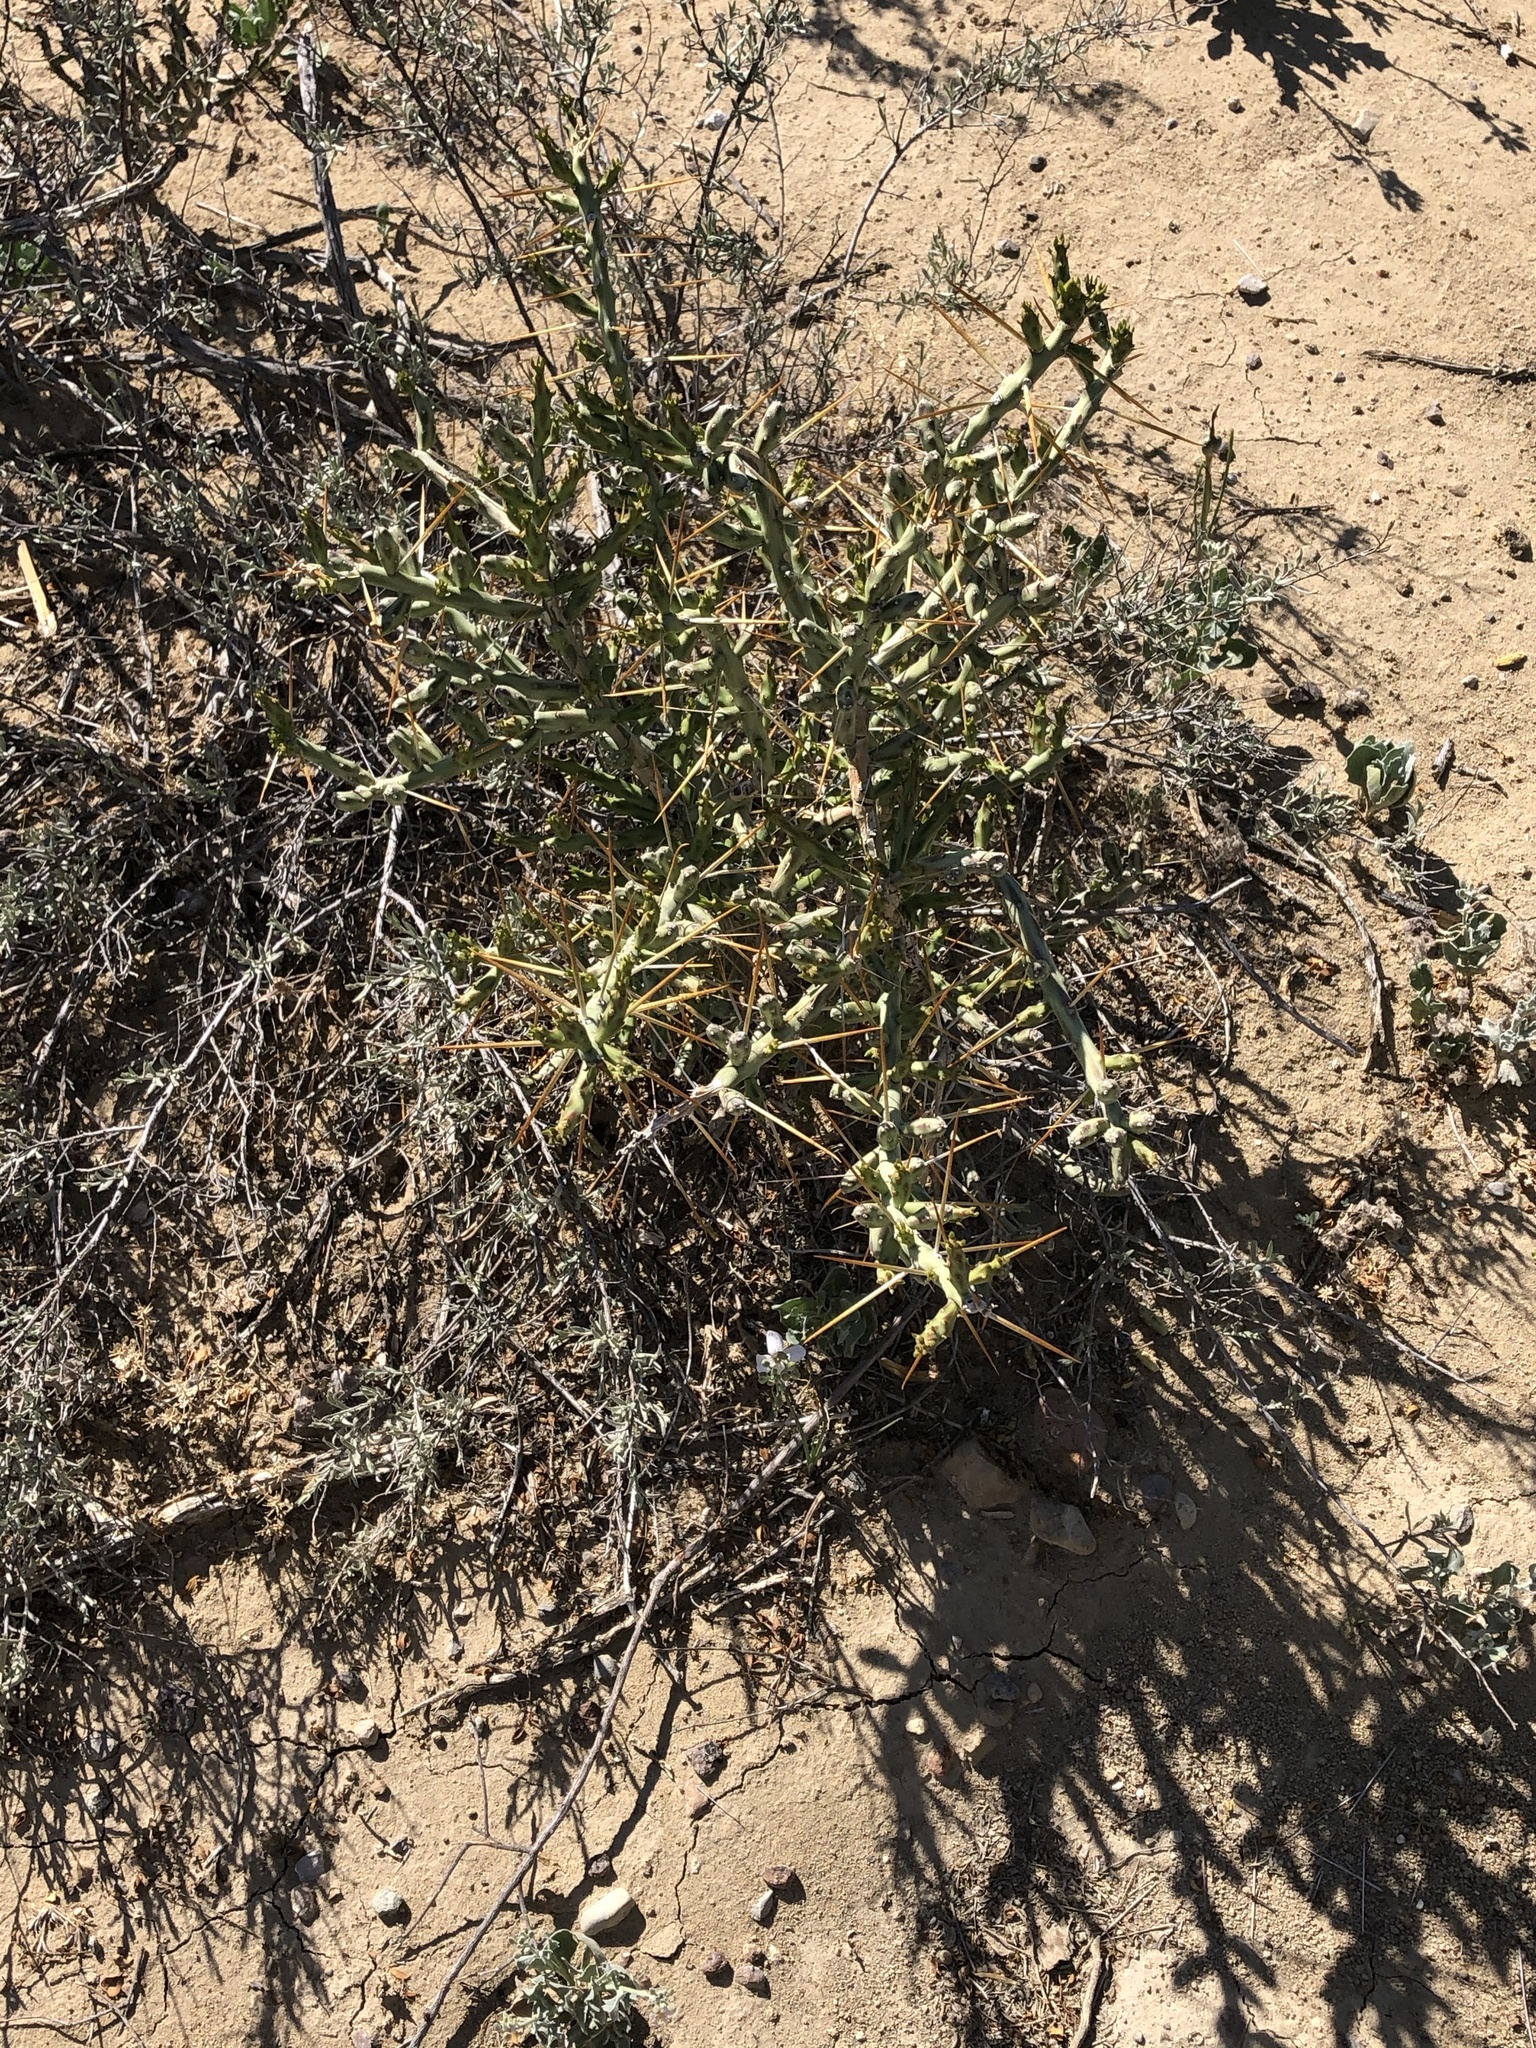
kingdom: Plantae
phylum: Tracheophyta
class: Magnoliopsida
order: Caryophyllales
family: Cactaceae
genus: Cylindropuntia
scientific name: Cylindropuntia leptocaulis
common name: Christmas cactus
